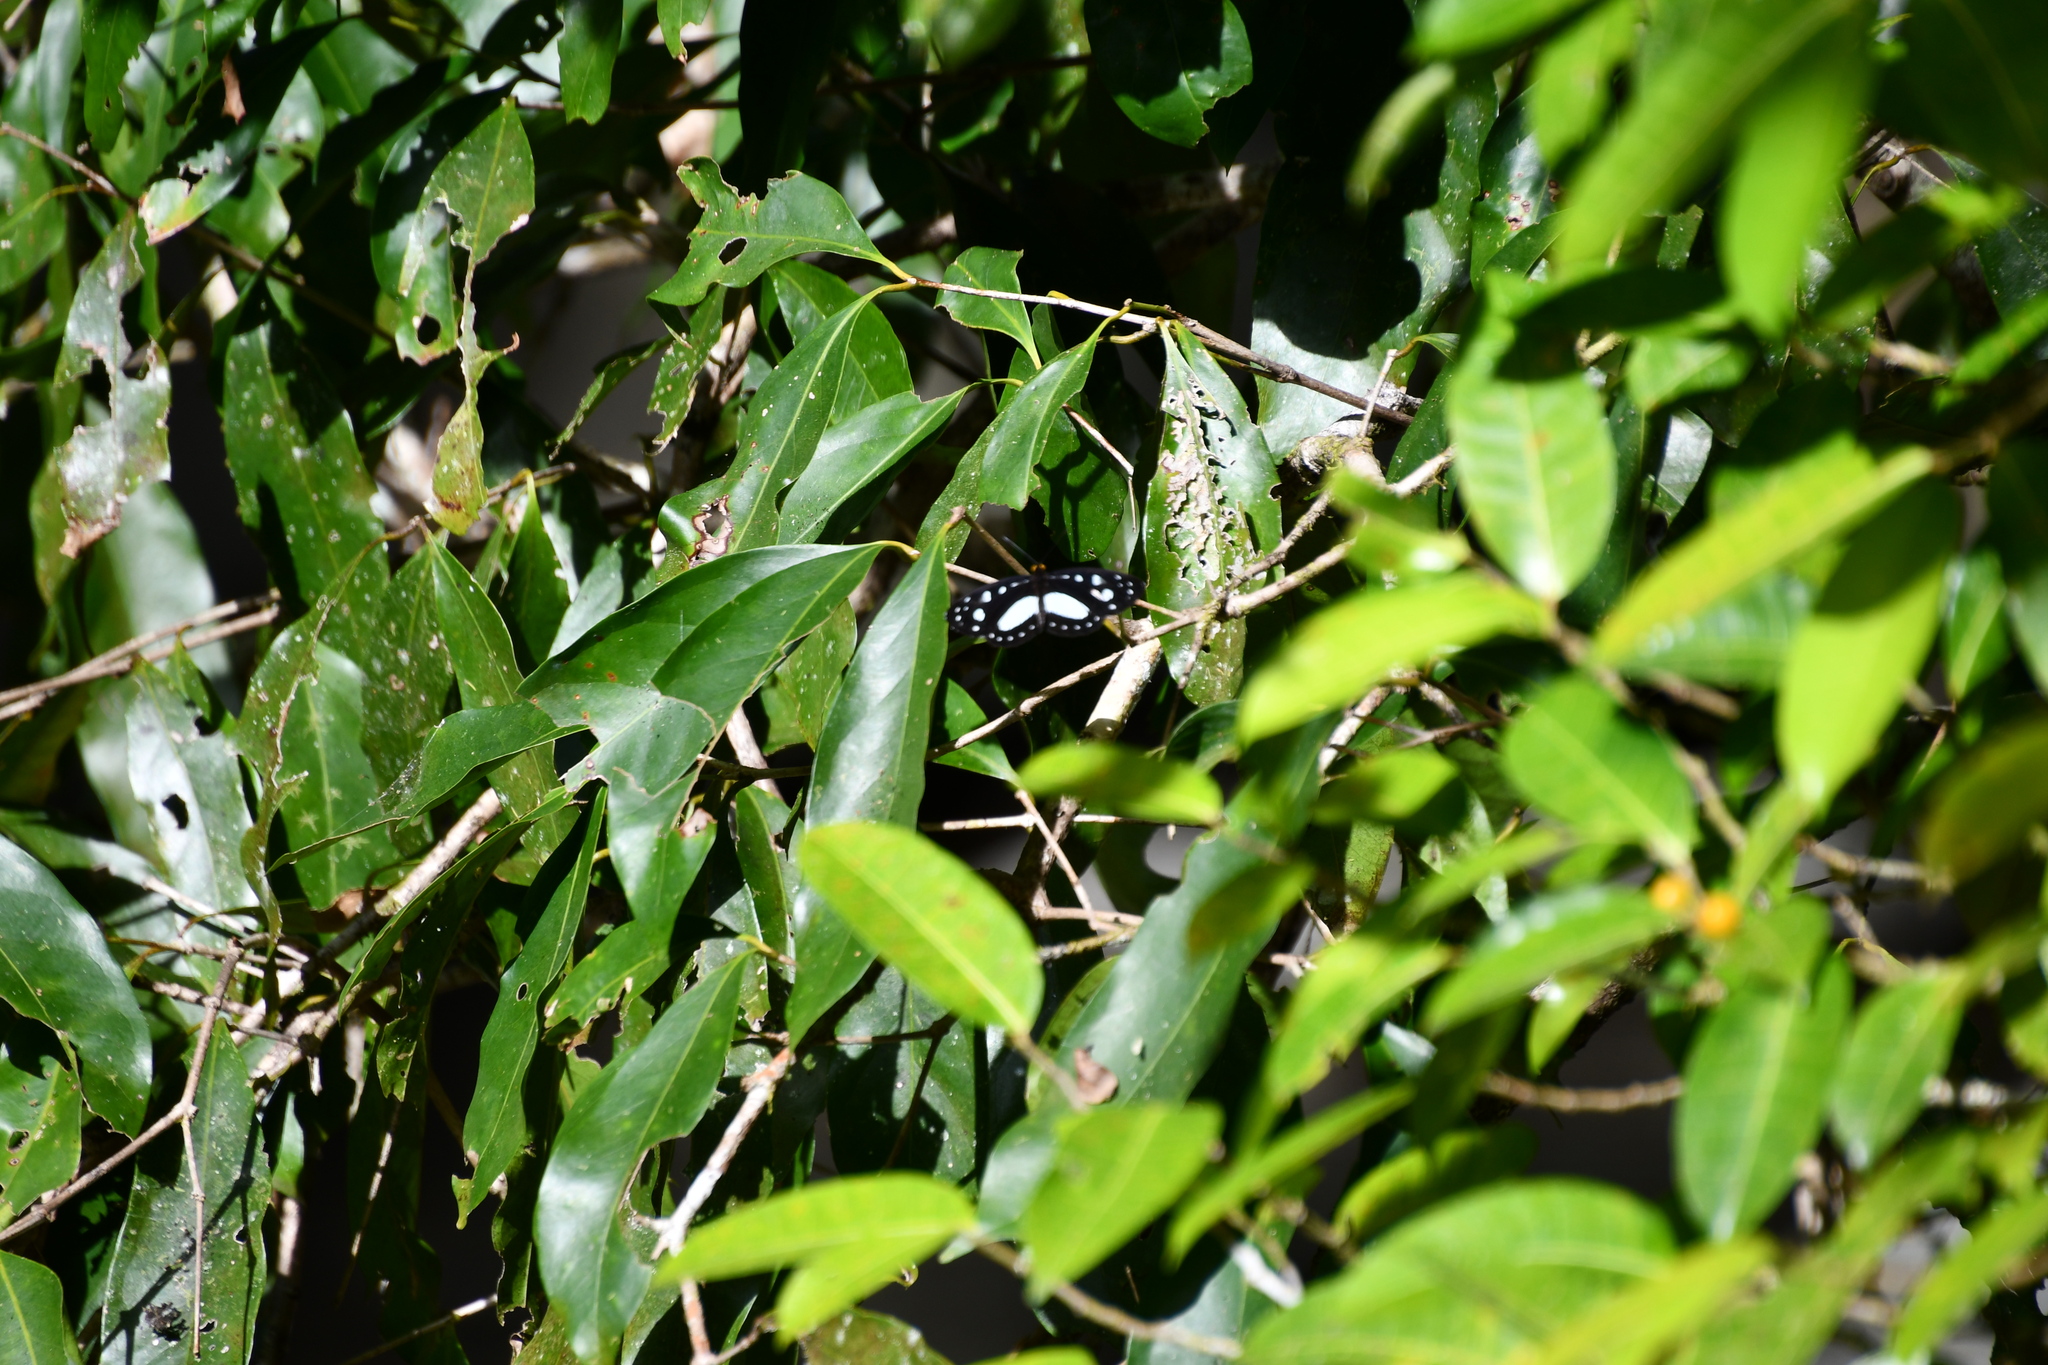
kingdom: Animalia
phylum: Arthropoda
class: Insecta
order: Lepidoptera
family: Nymphalidae
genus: Neptis
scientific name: Neptis praslini
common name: Yellow-eyed plane
